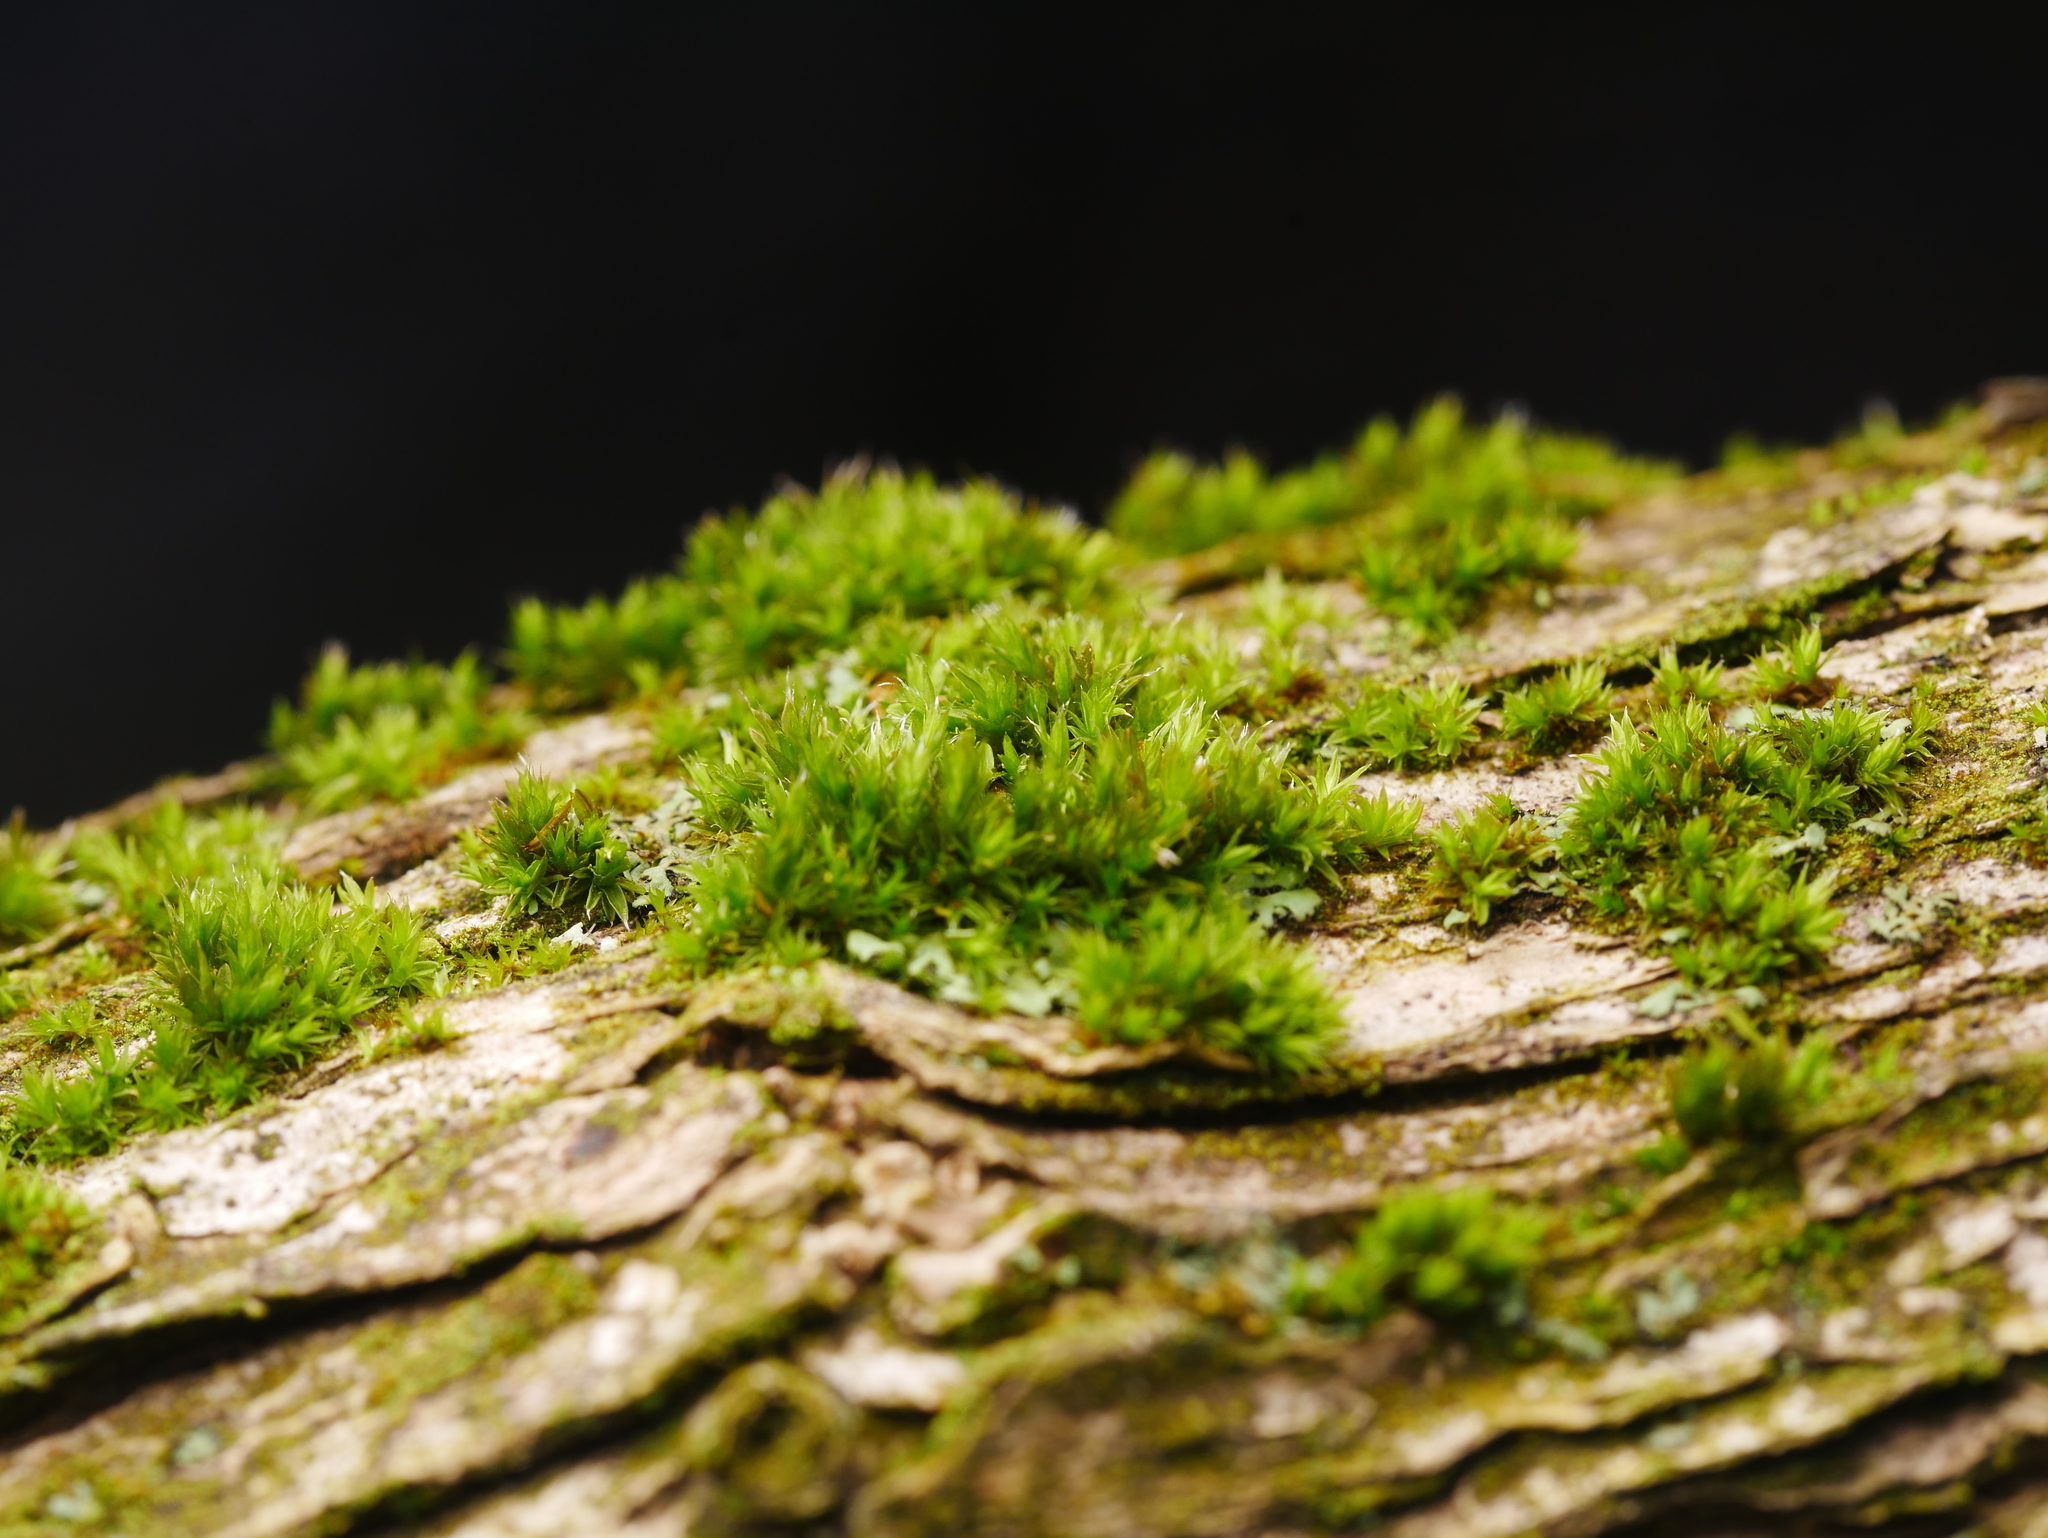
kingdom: Plantae
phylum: Bryophyta
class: Bryopsida
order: Orthotrichales
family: Orthotrichaceae
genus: Orthotrichum
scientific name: Orthotrichum diaphanum
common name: White-tipped bristle-moss
